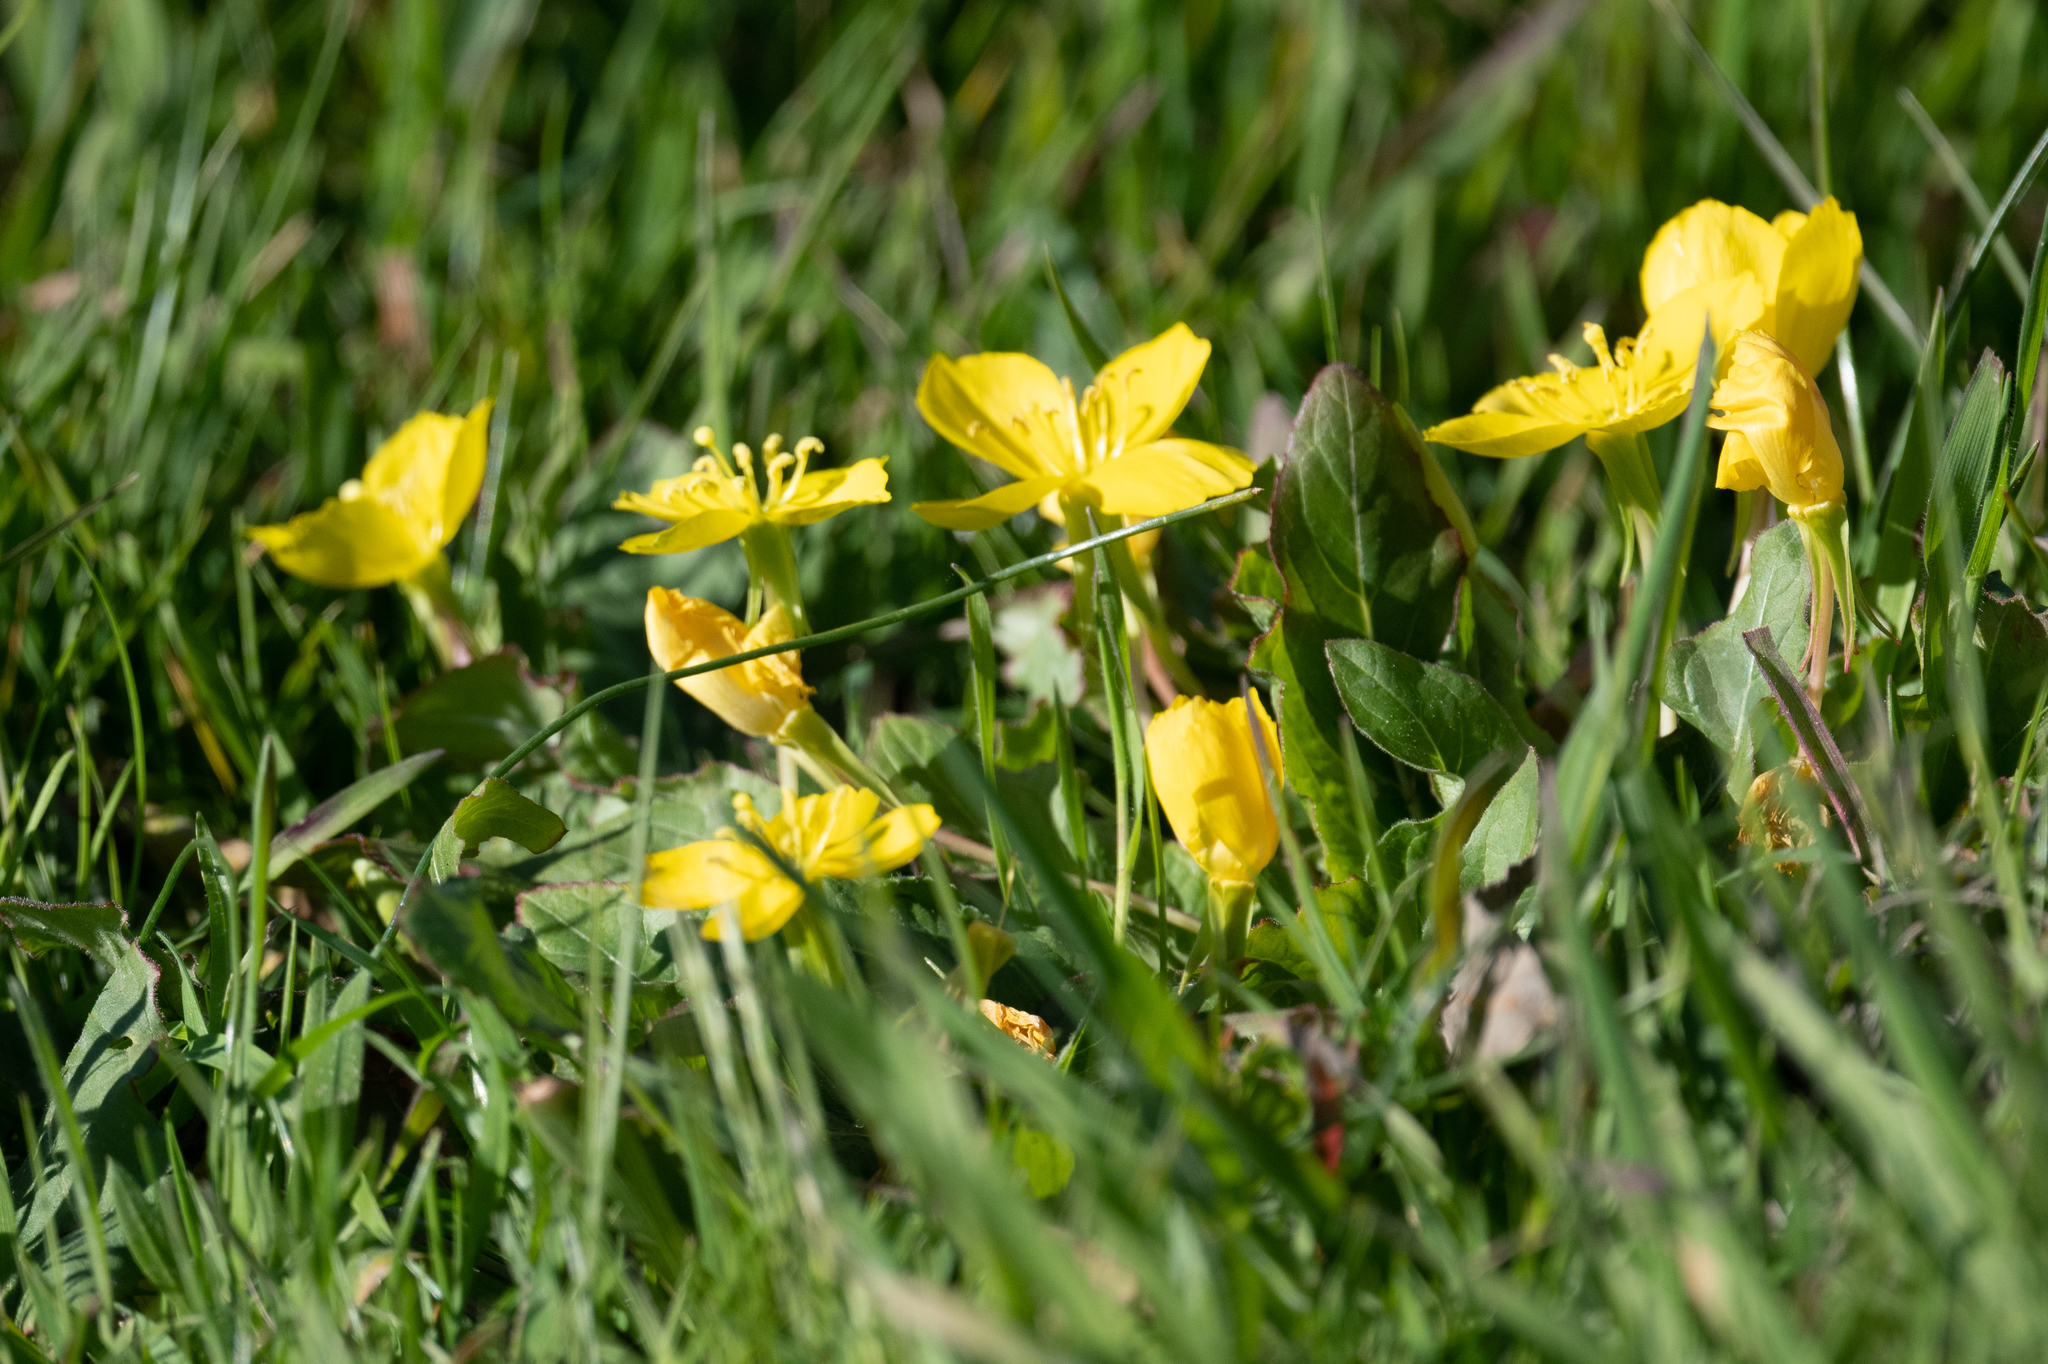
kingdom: Plantae
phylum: Tracheophyta
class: Magnoliopsida
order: Myrtales
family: Onagraceae
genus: Taraxia
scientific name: Taraxia ovata
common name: Goldeneggs
